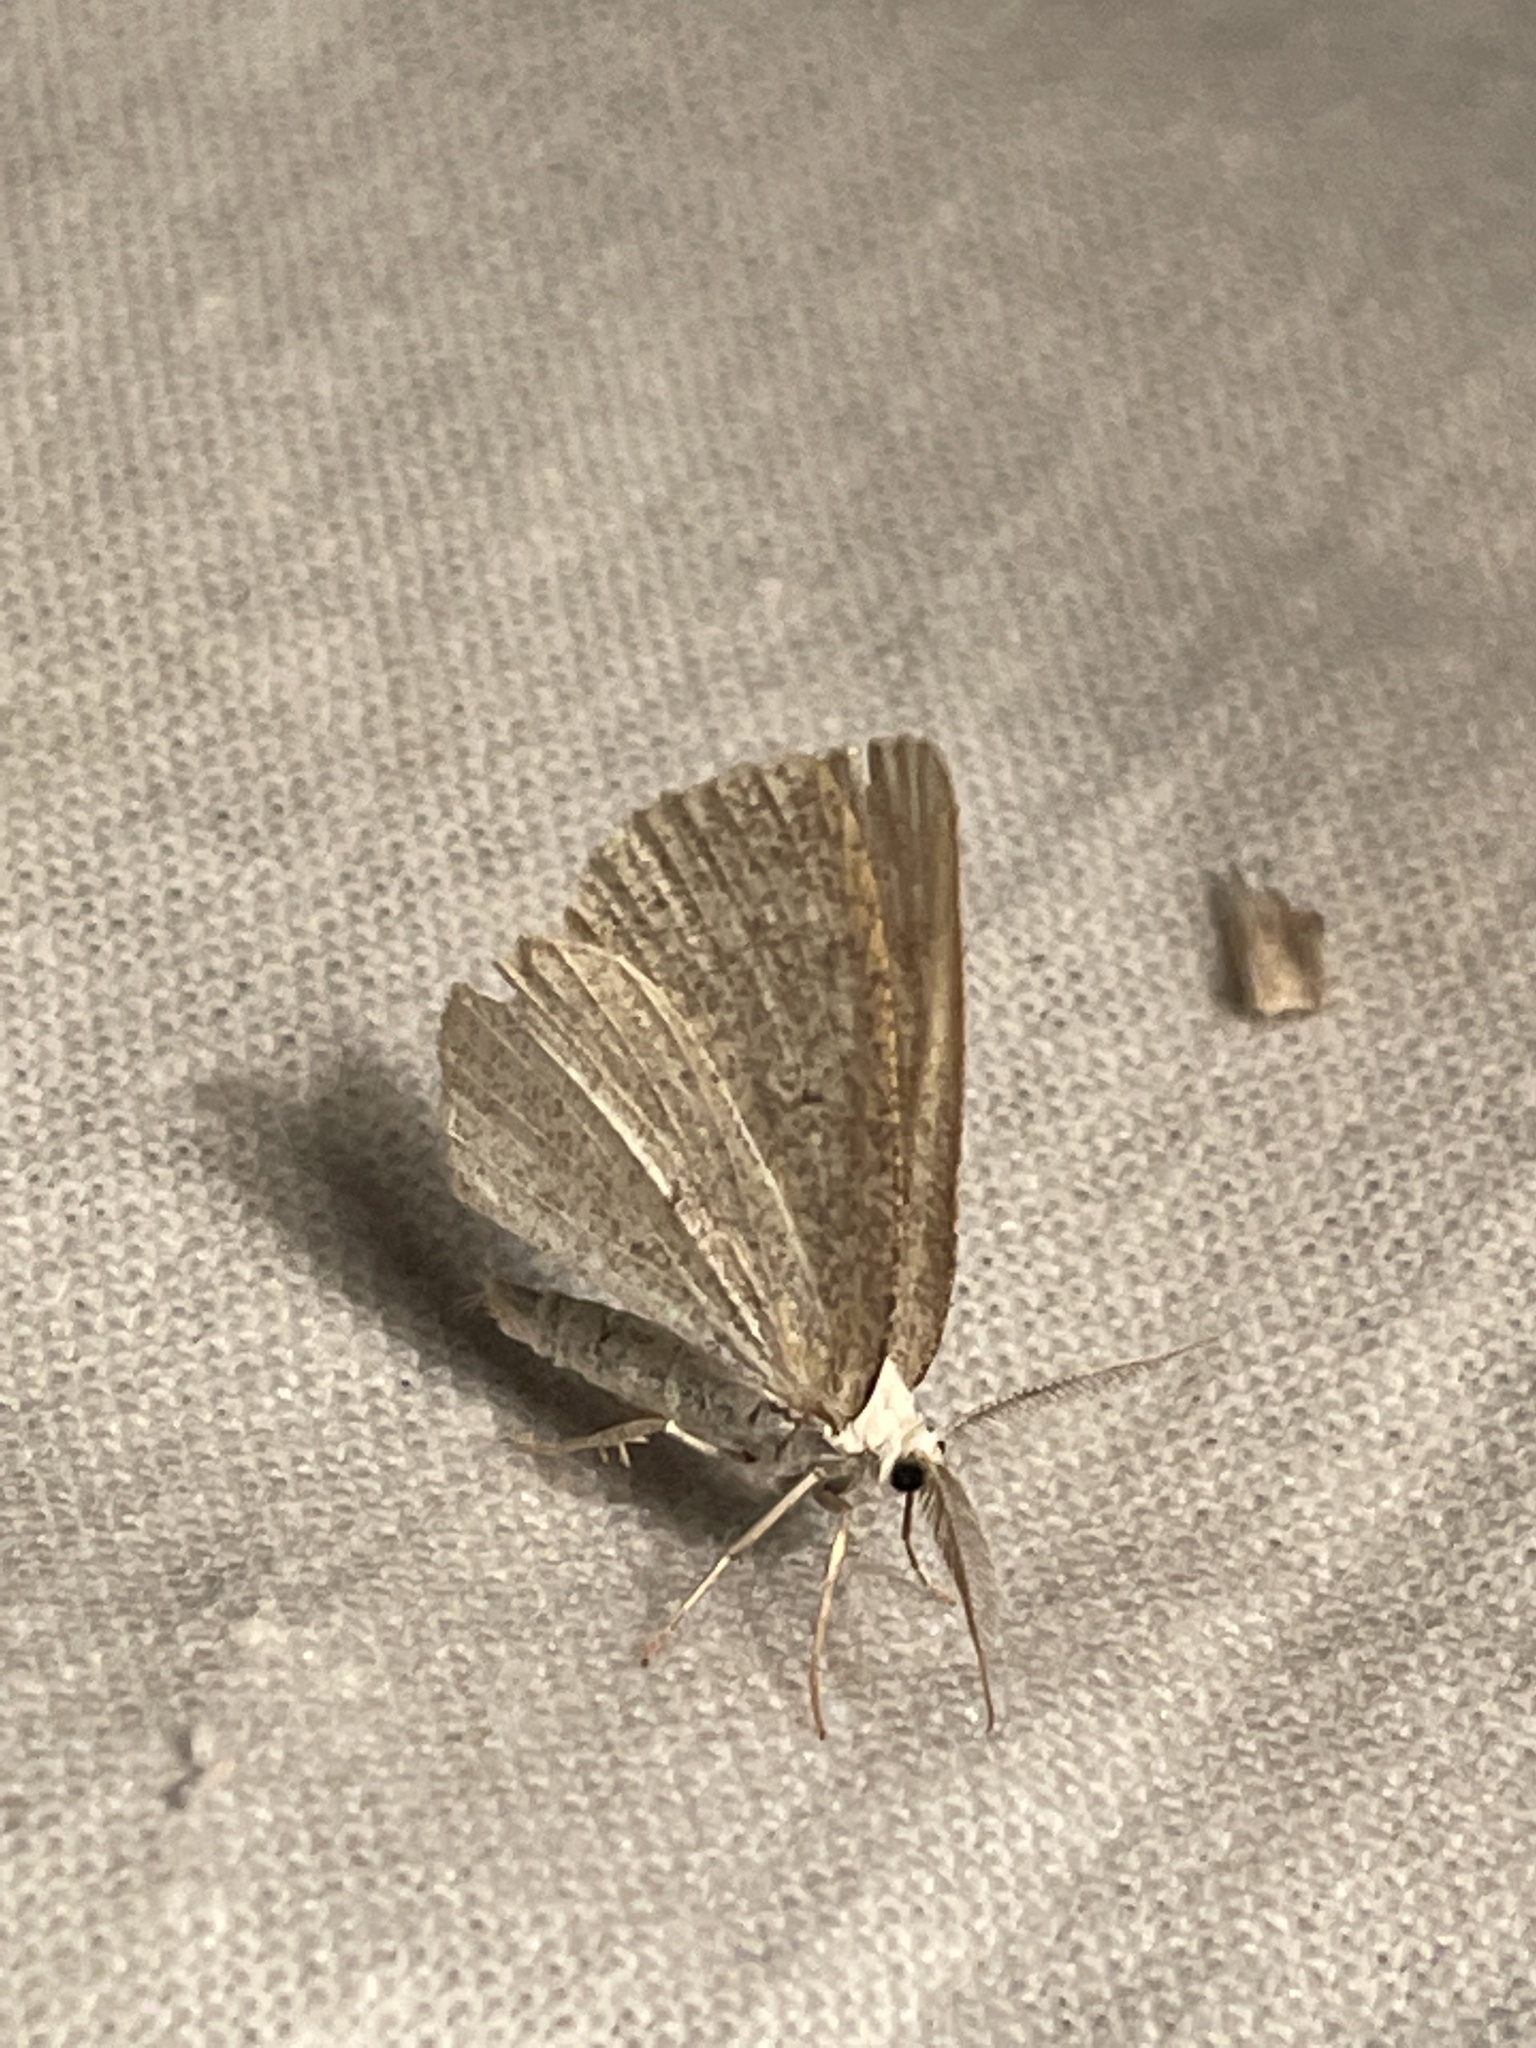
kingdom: Animalia
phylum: Arthropoda
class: Insecta
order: Lepidoptera
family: Geometridae
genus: Cabera
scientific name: Cabera exanthemata
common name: Common wave
